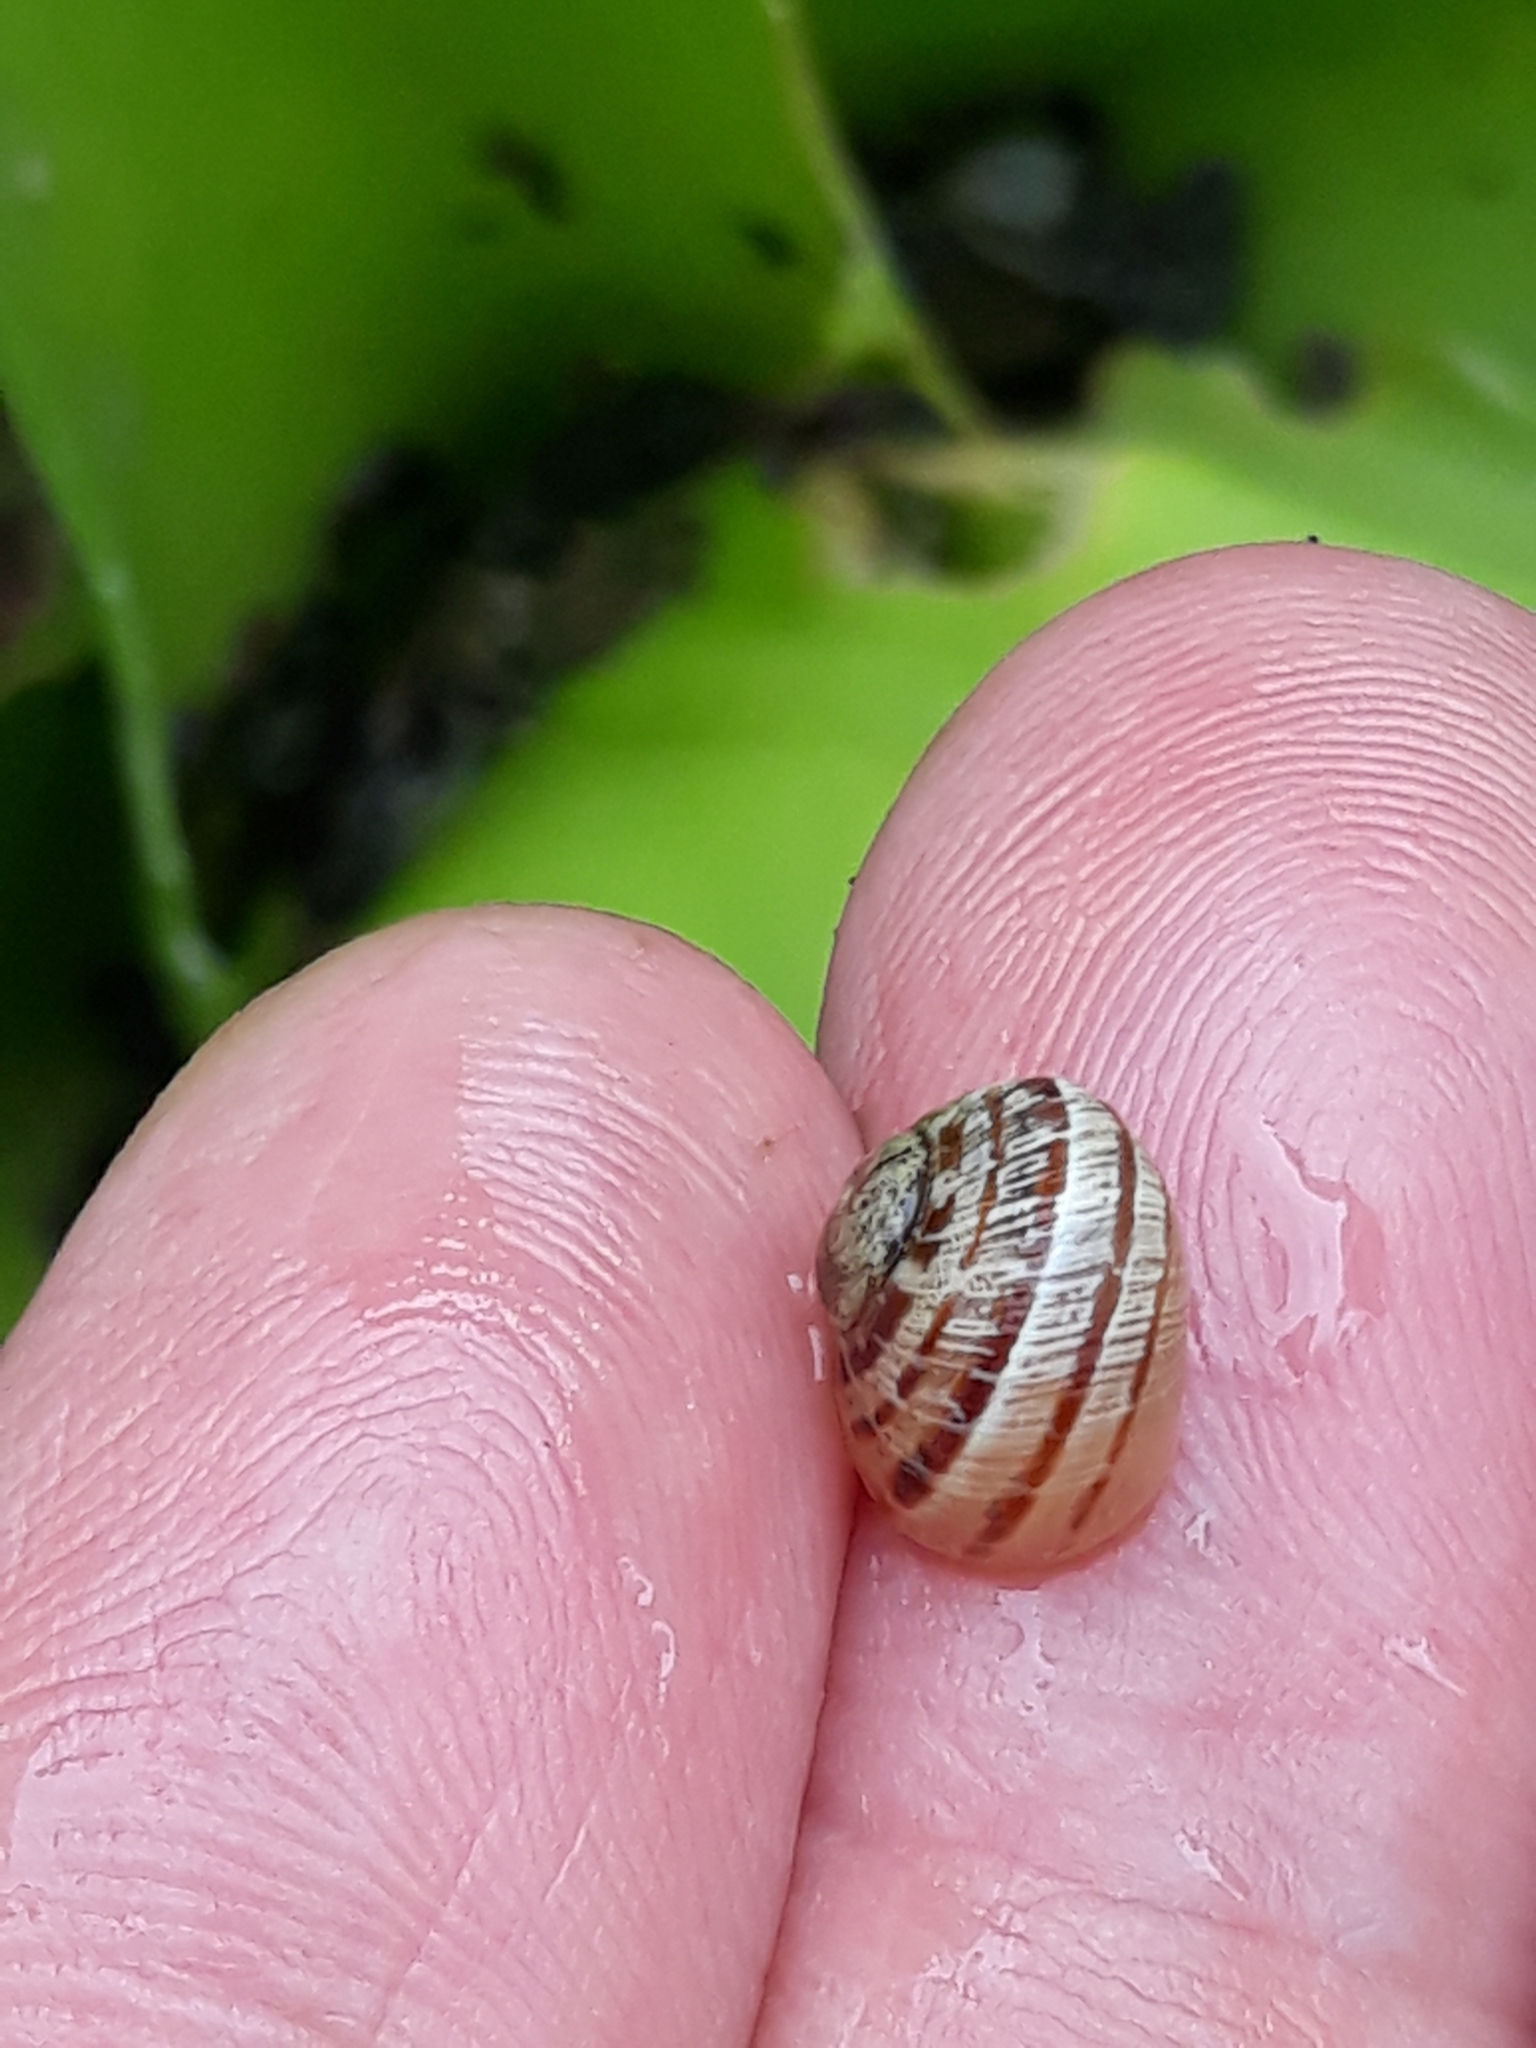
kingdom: Animalia
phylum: Mollusca
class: Gastropoda
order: Stylommatophora
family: Helicidae
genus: Cornu
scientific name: Cornu aspersum
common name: Brown garden snail
